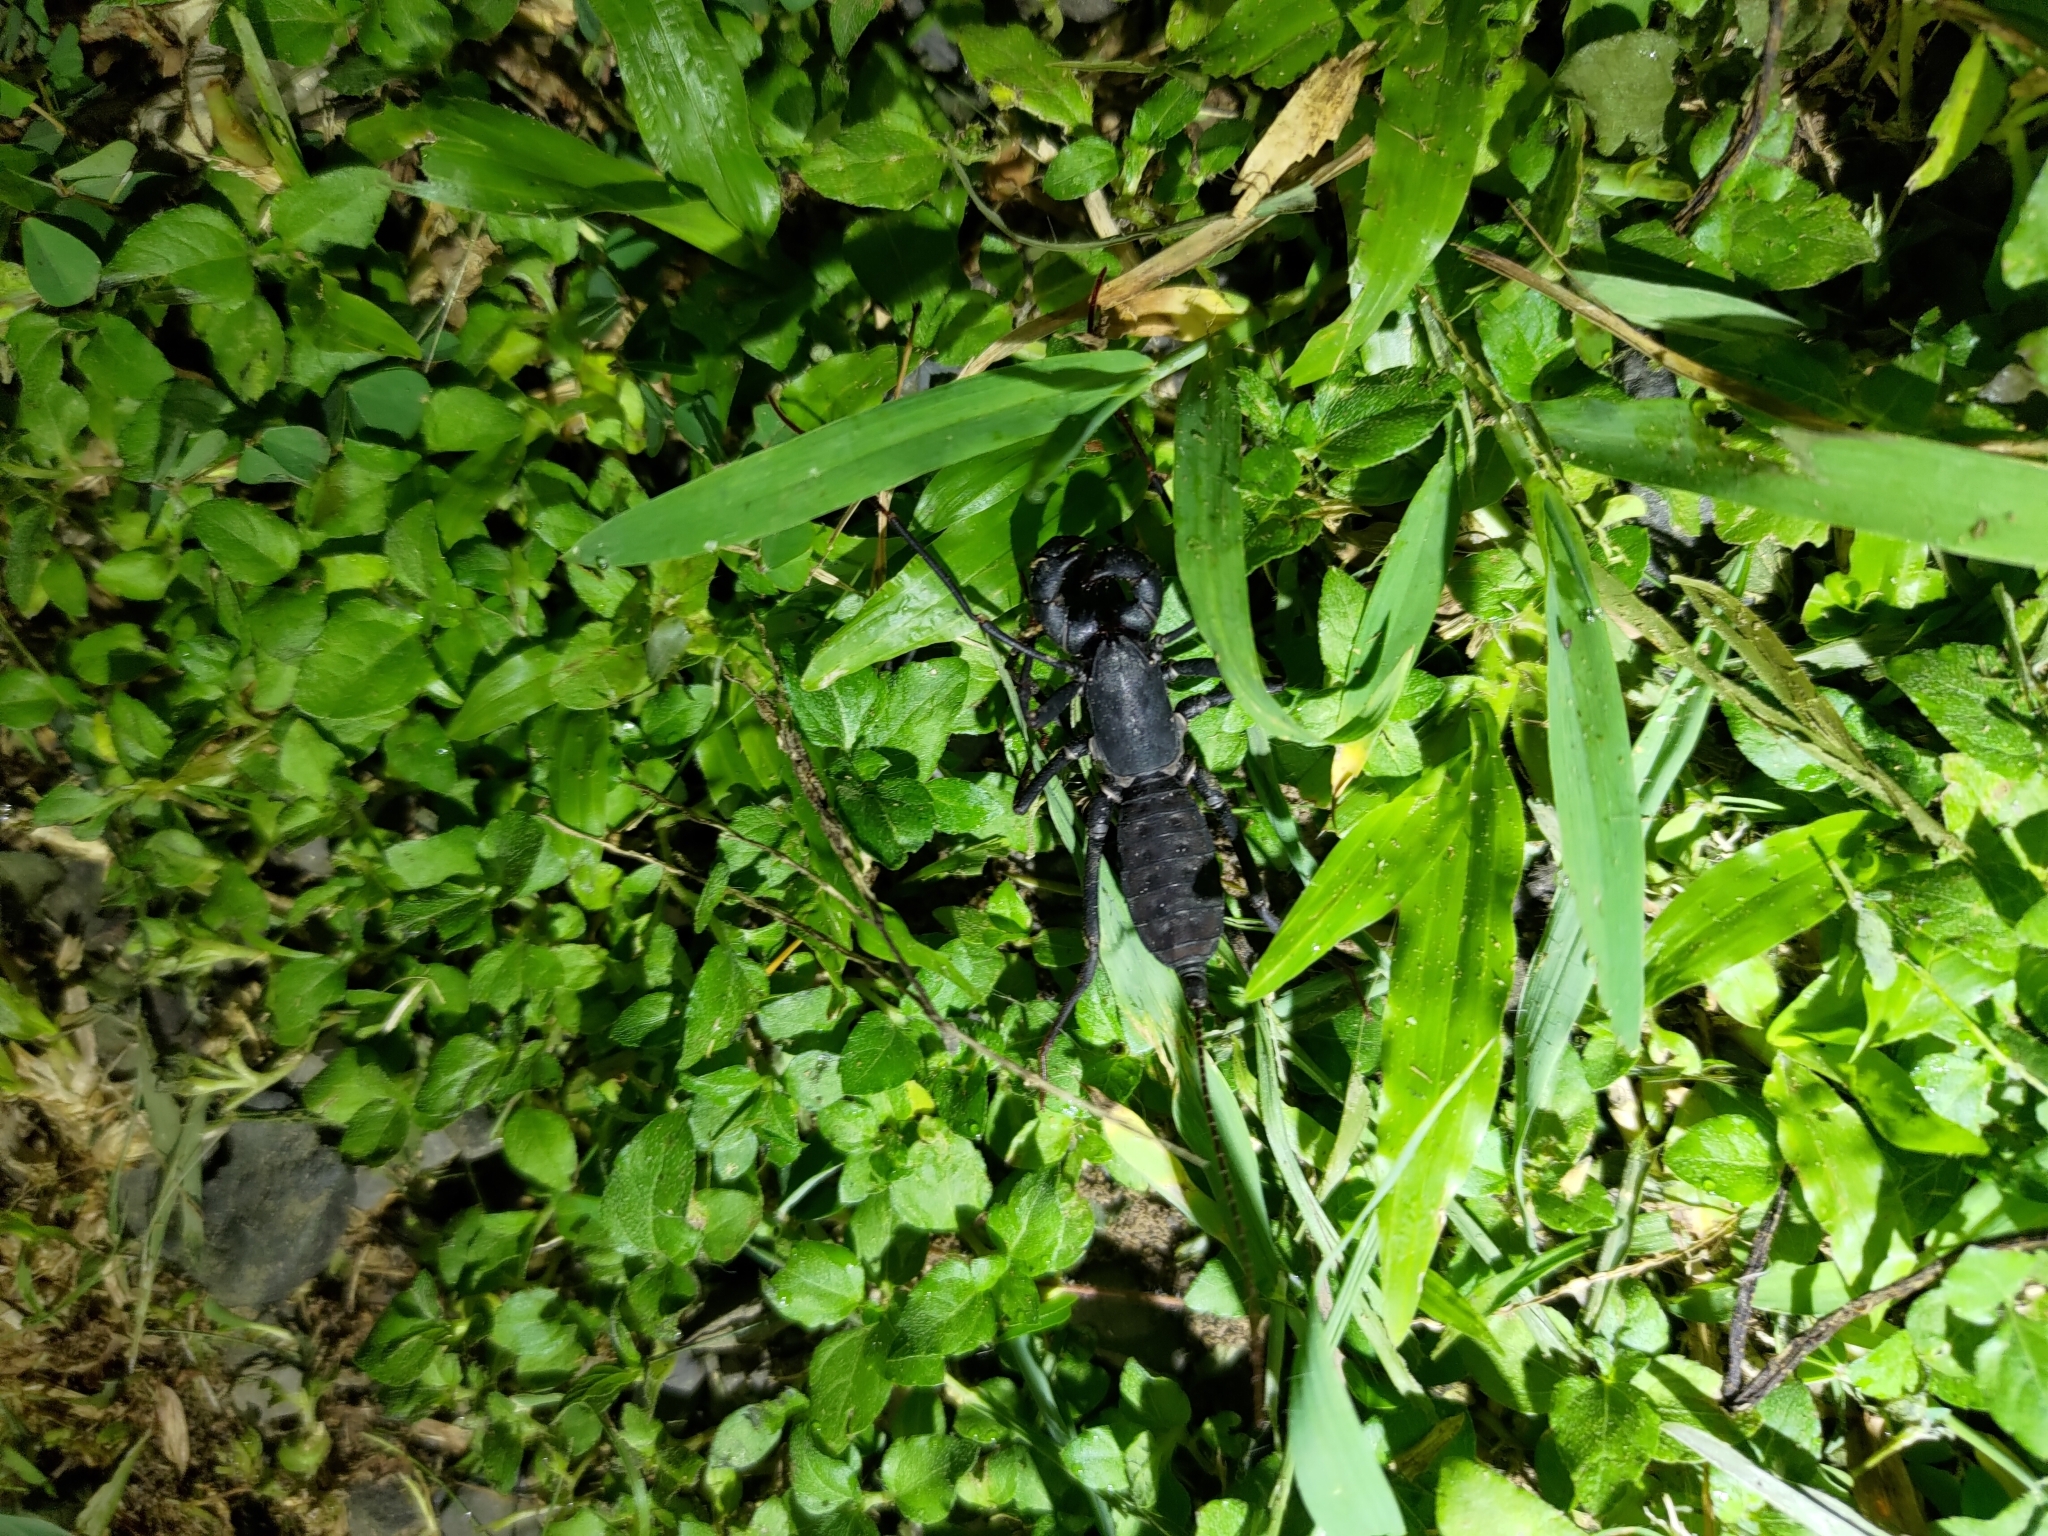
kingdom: Animalia
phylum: Arthropoda
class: Arachnida
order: Uropygi
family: Thelyphonidae
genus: Typopeltis
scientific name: Typopeltis crucifer
